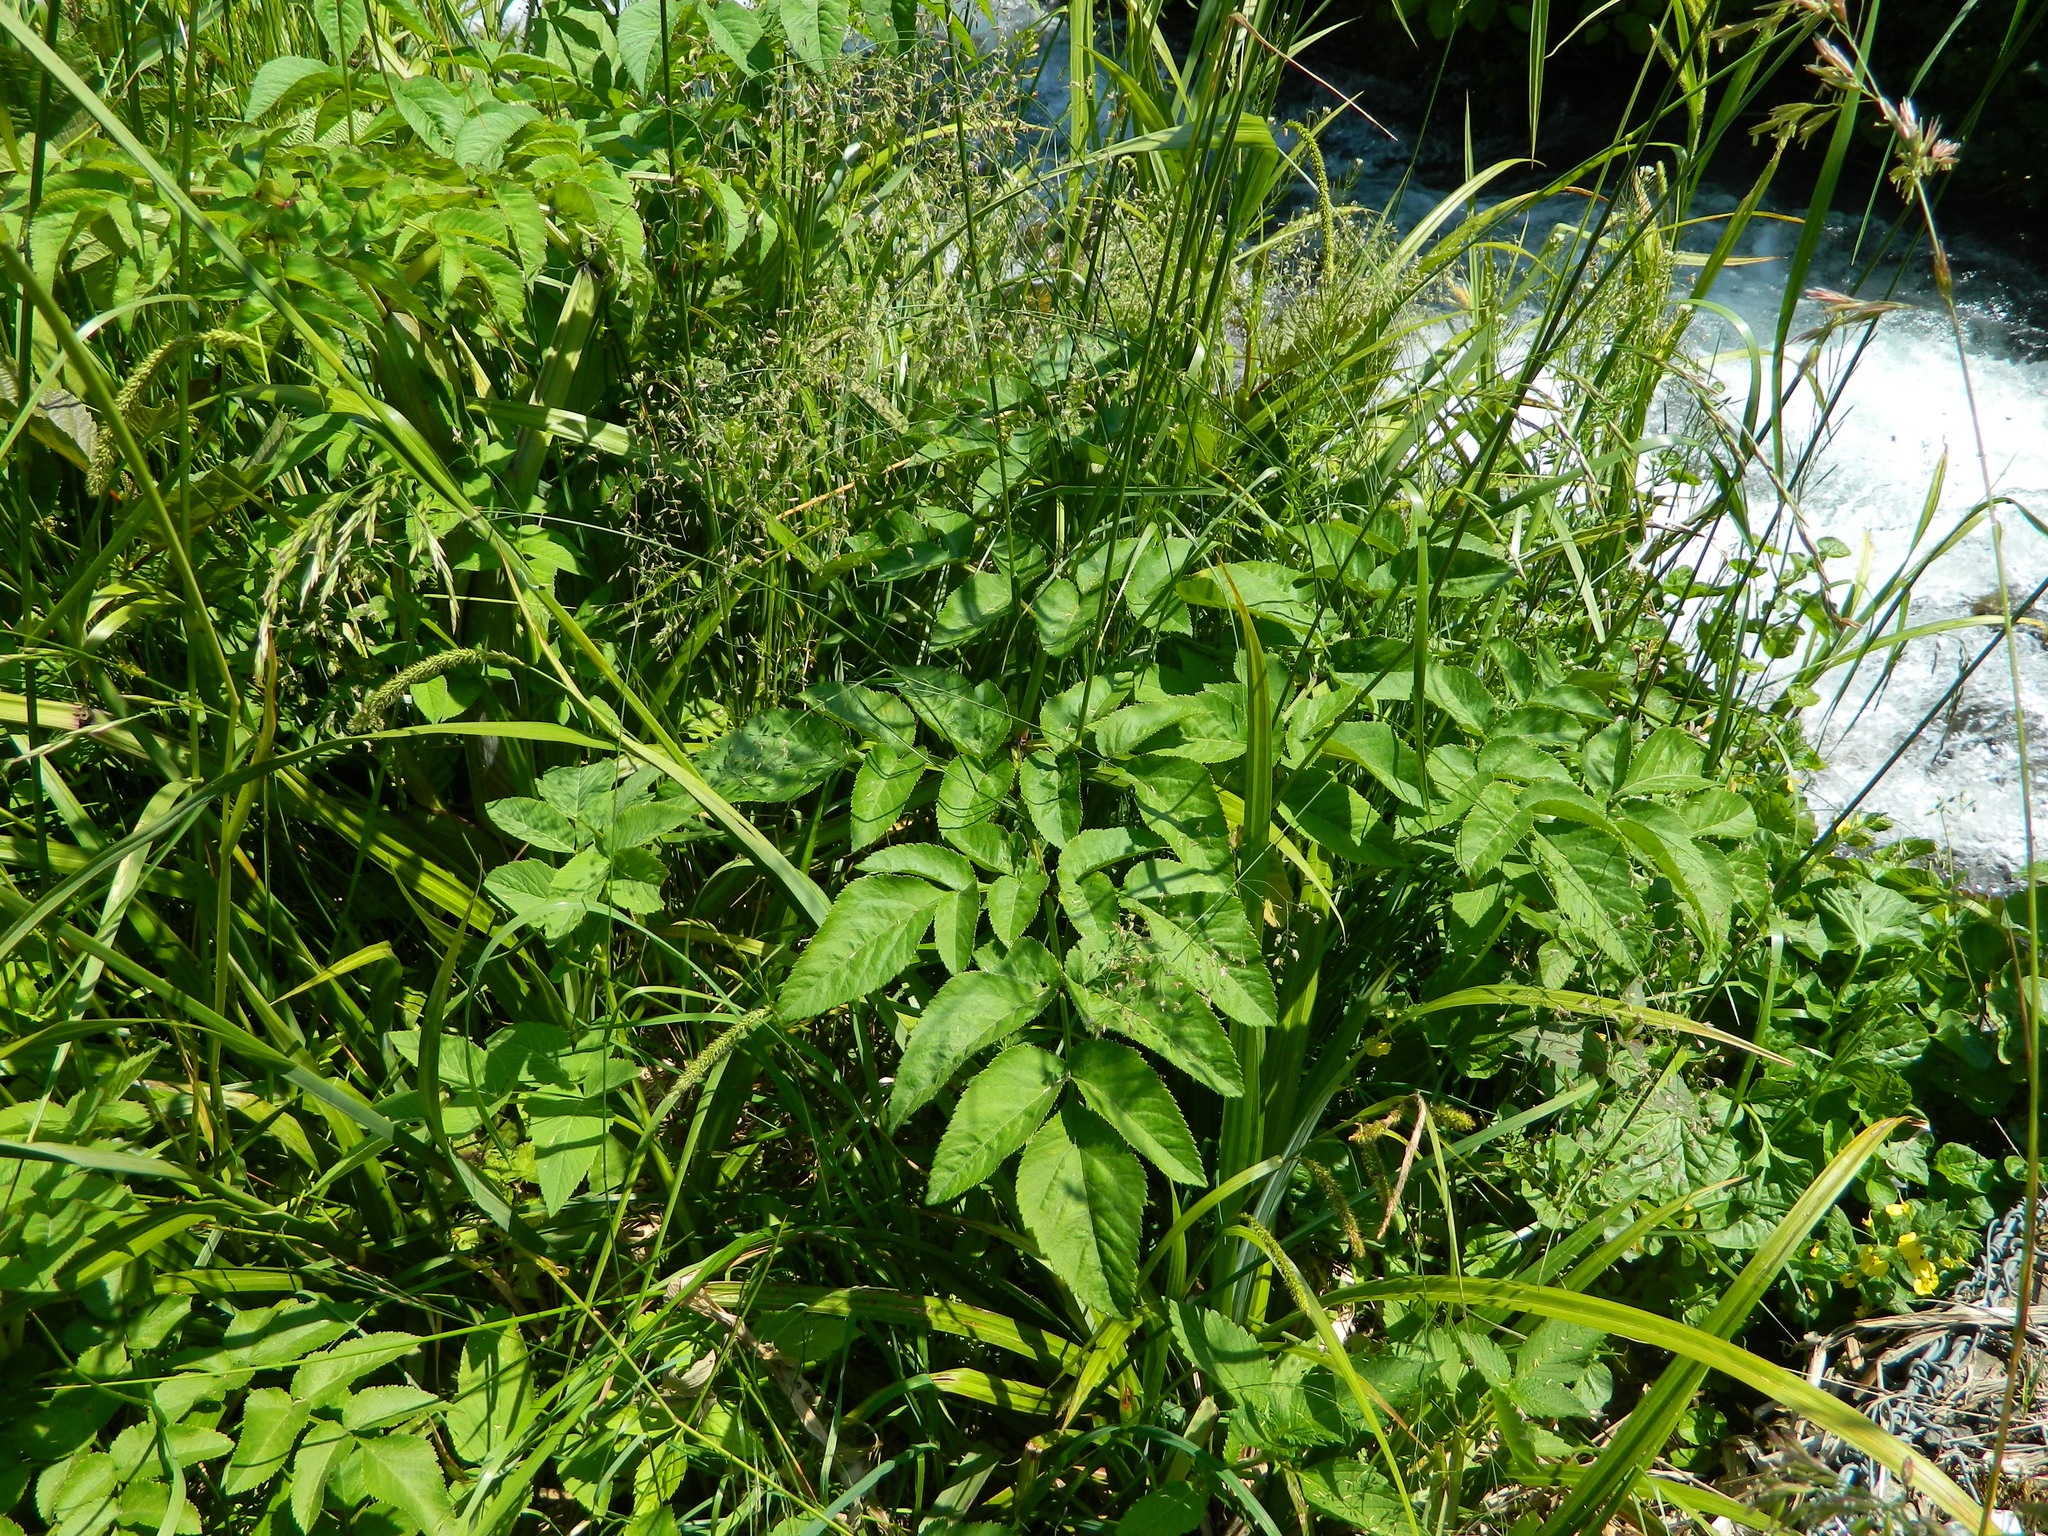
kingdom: Plantae
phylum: Tracheophyta
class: Magnoliopsida
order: Apiales
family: Apiaceae
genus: Angelica
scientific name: Angelica sylvestris
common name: Wild angelica
